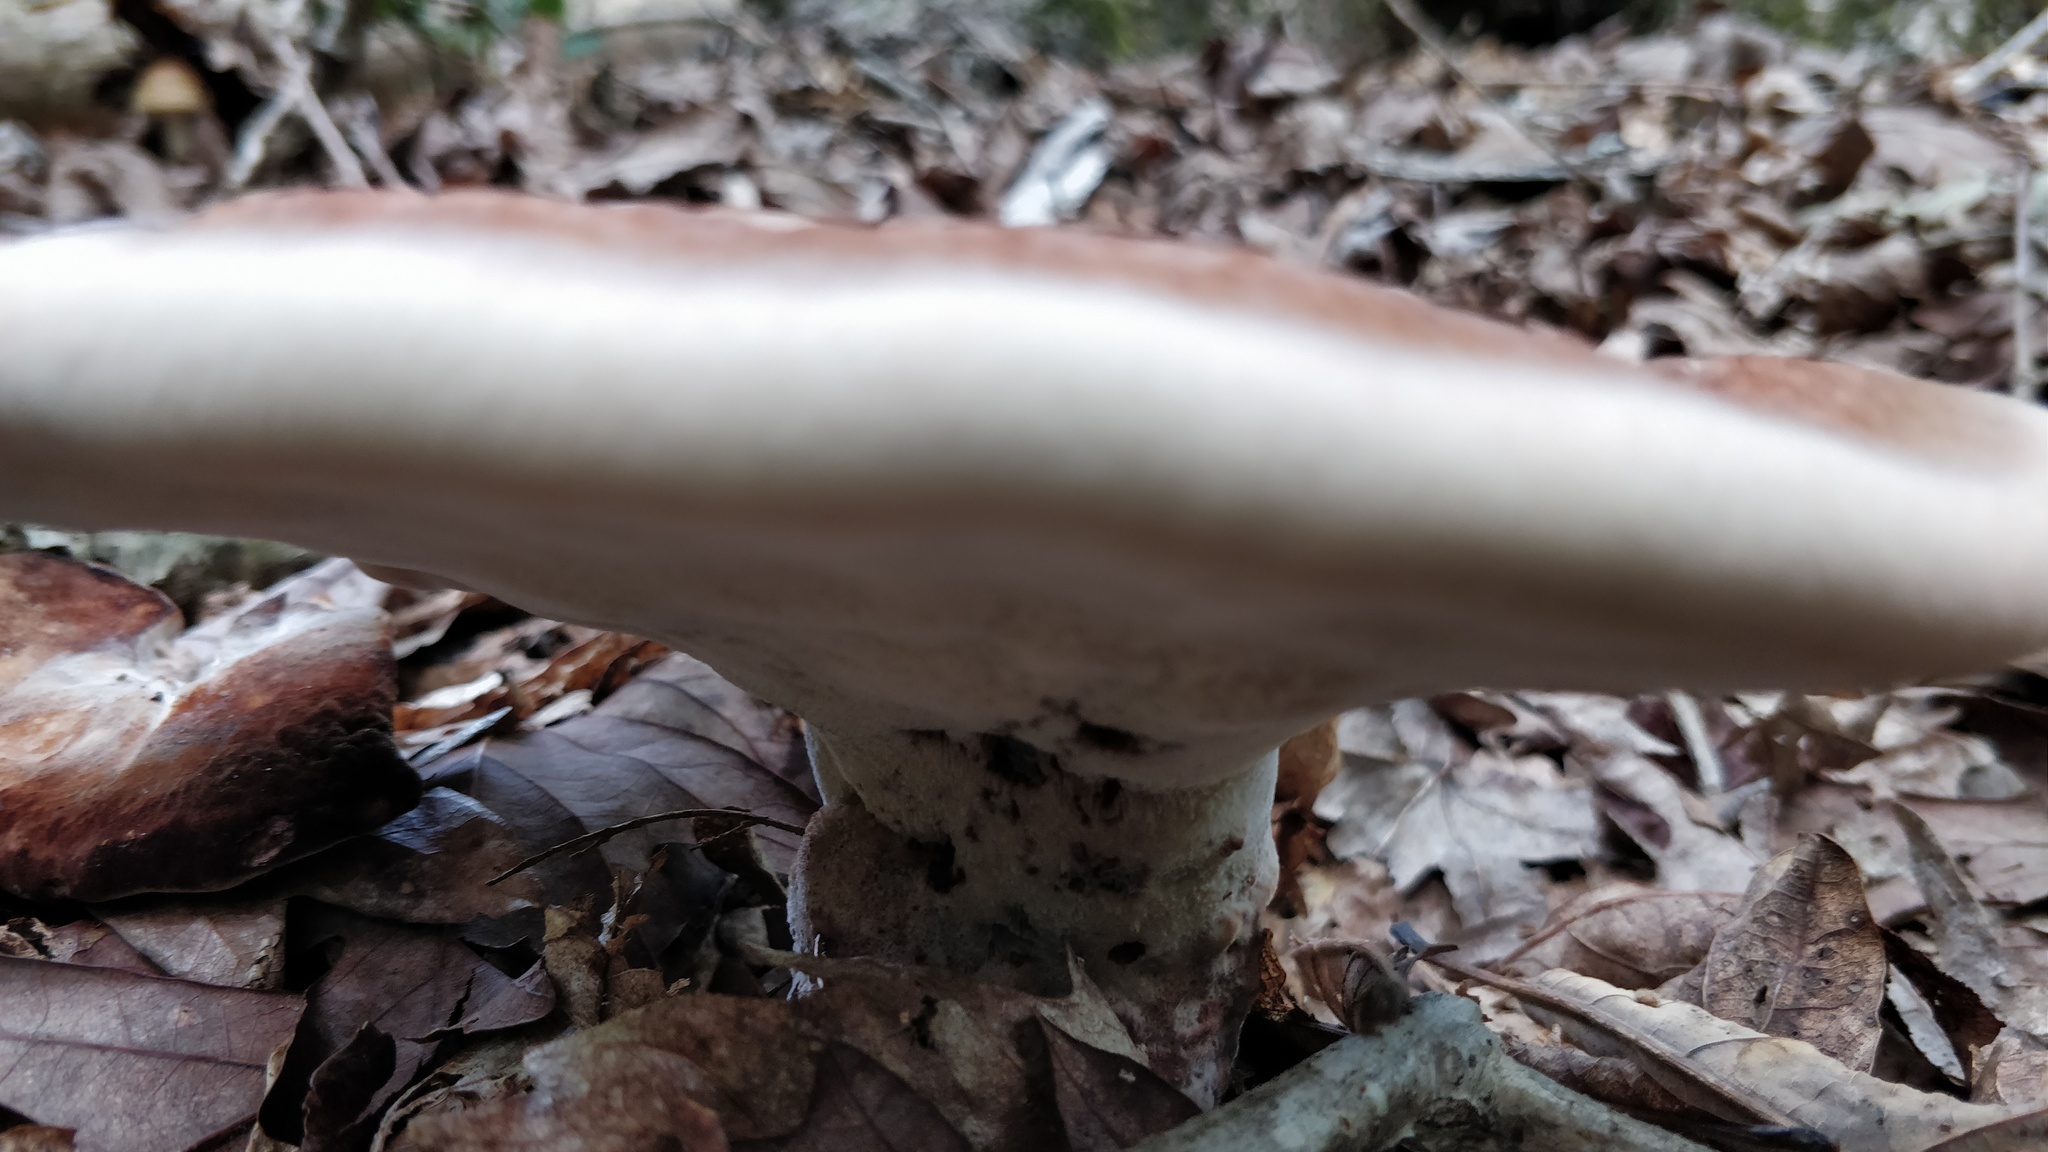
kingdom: Fungi
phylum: Basidiomycota
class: Agaricomycetes
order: Polyporales
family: Laetiporaceae
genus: Berkcurtia
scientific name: Berkcurtia persicina
